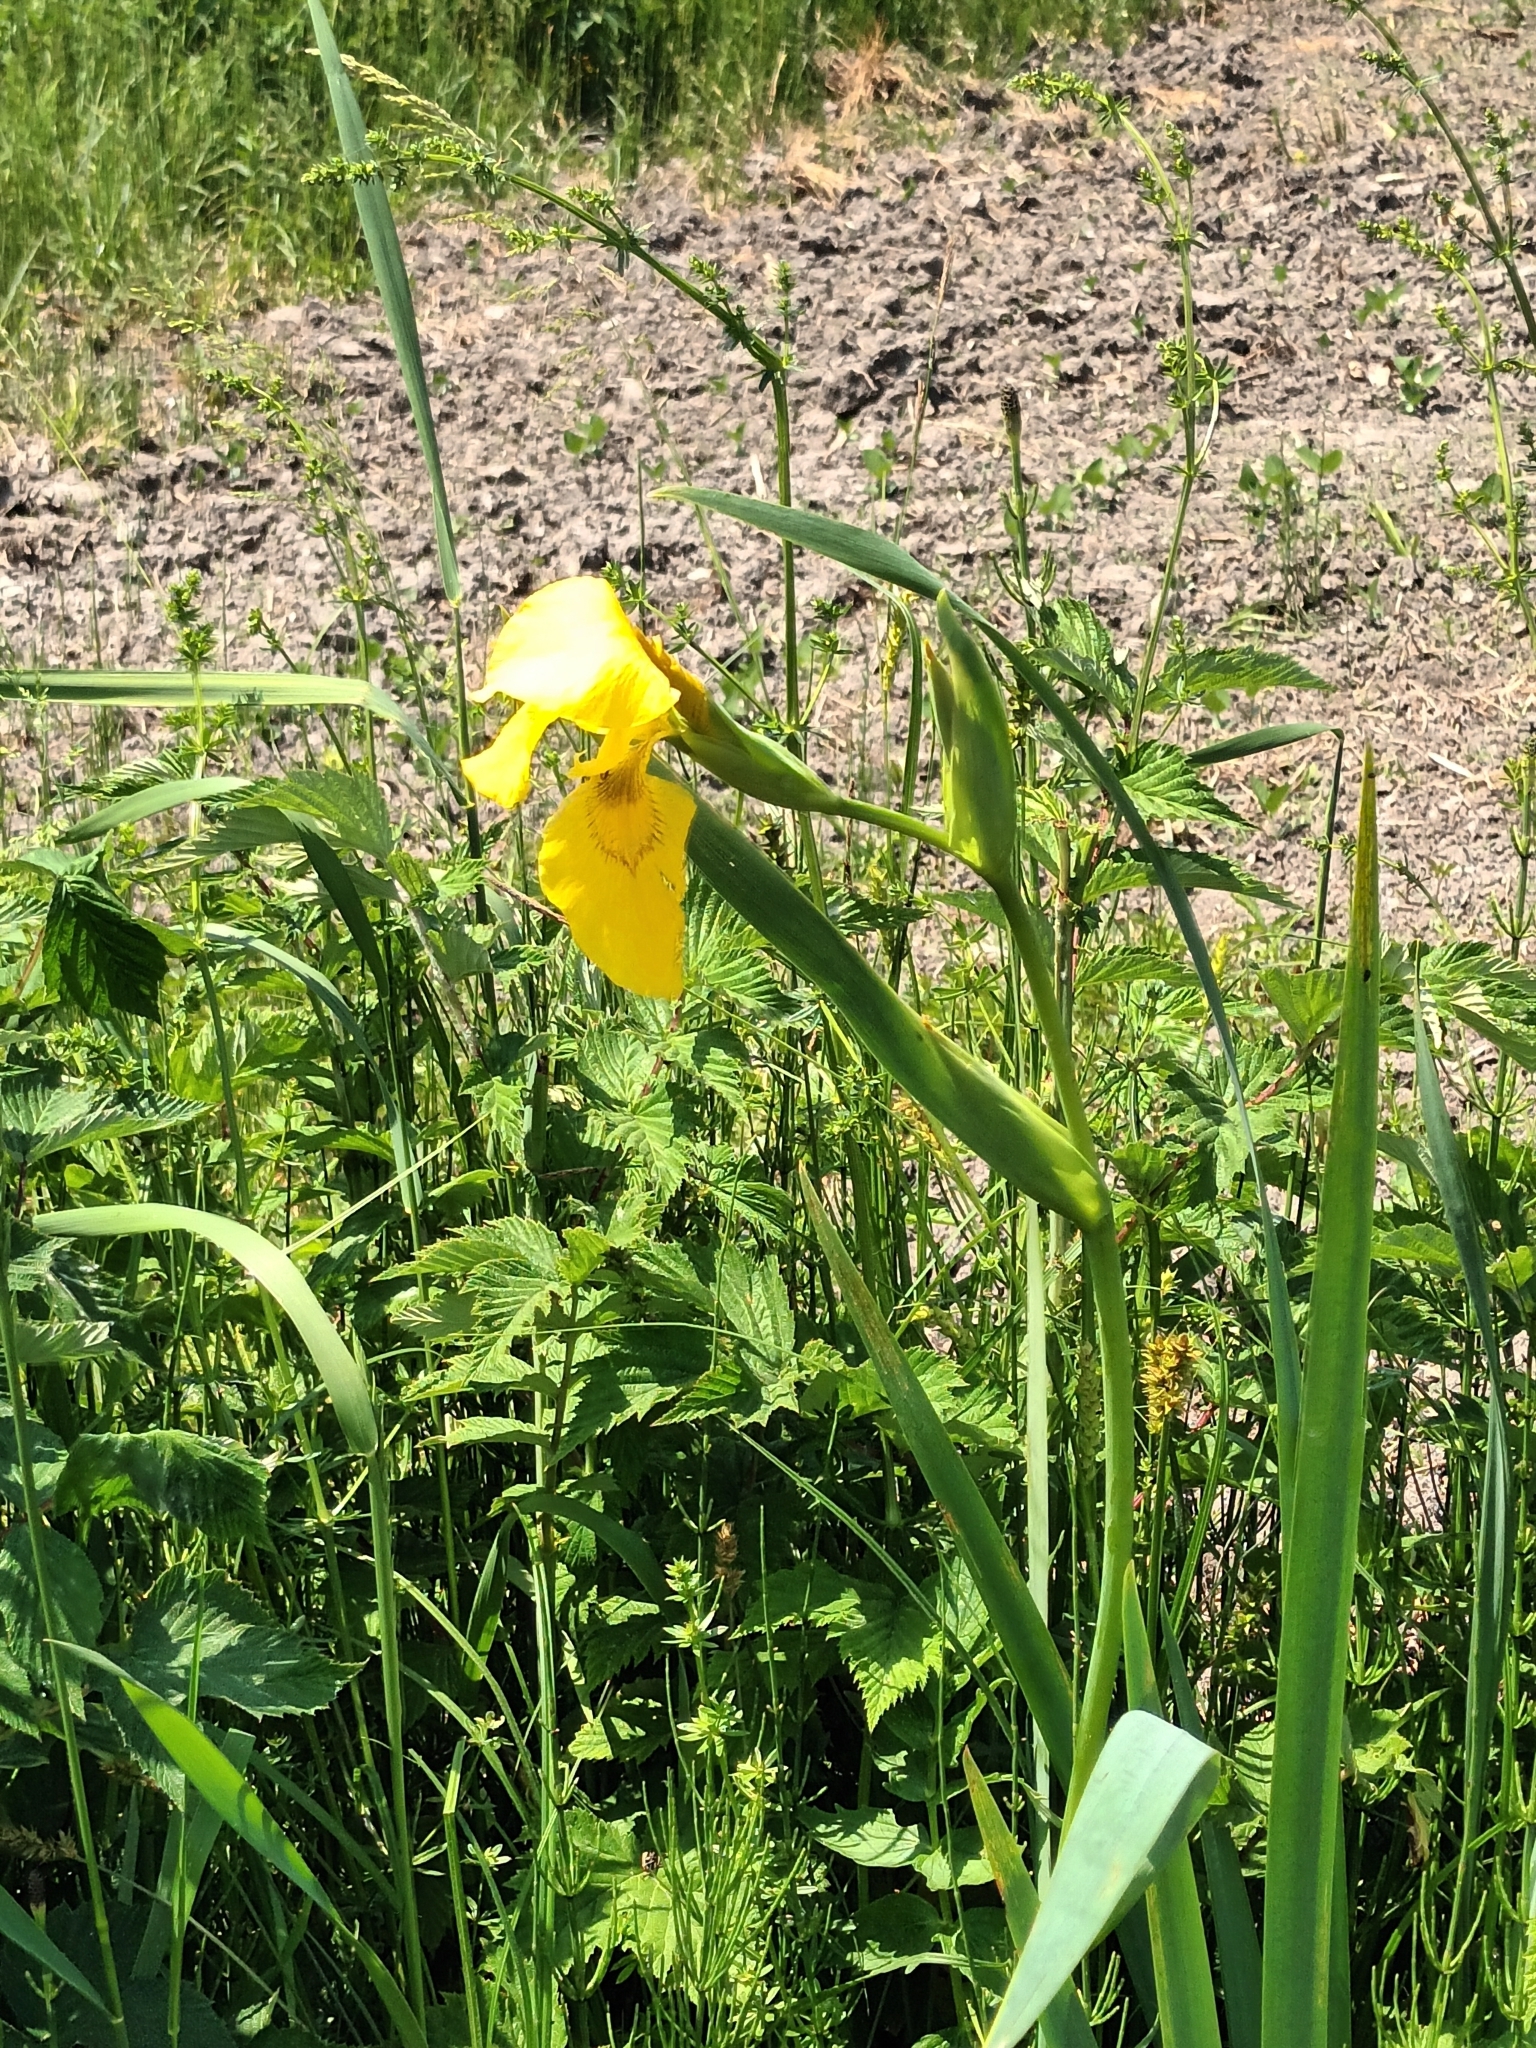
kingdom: Plantae
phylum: Tracheophyta
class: Liliopsida
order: Asparagales
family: Iridaceae
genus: Iris
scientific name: Iris pseudacorus
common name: Yellow flag
